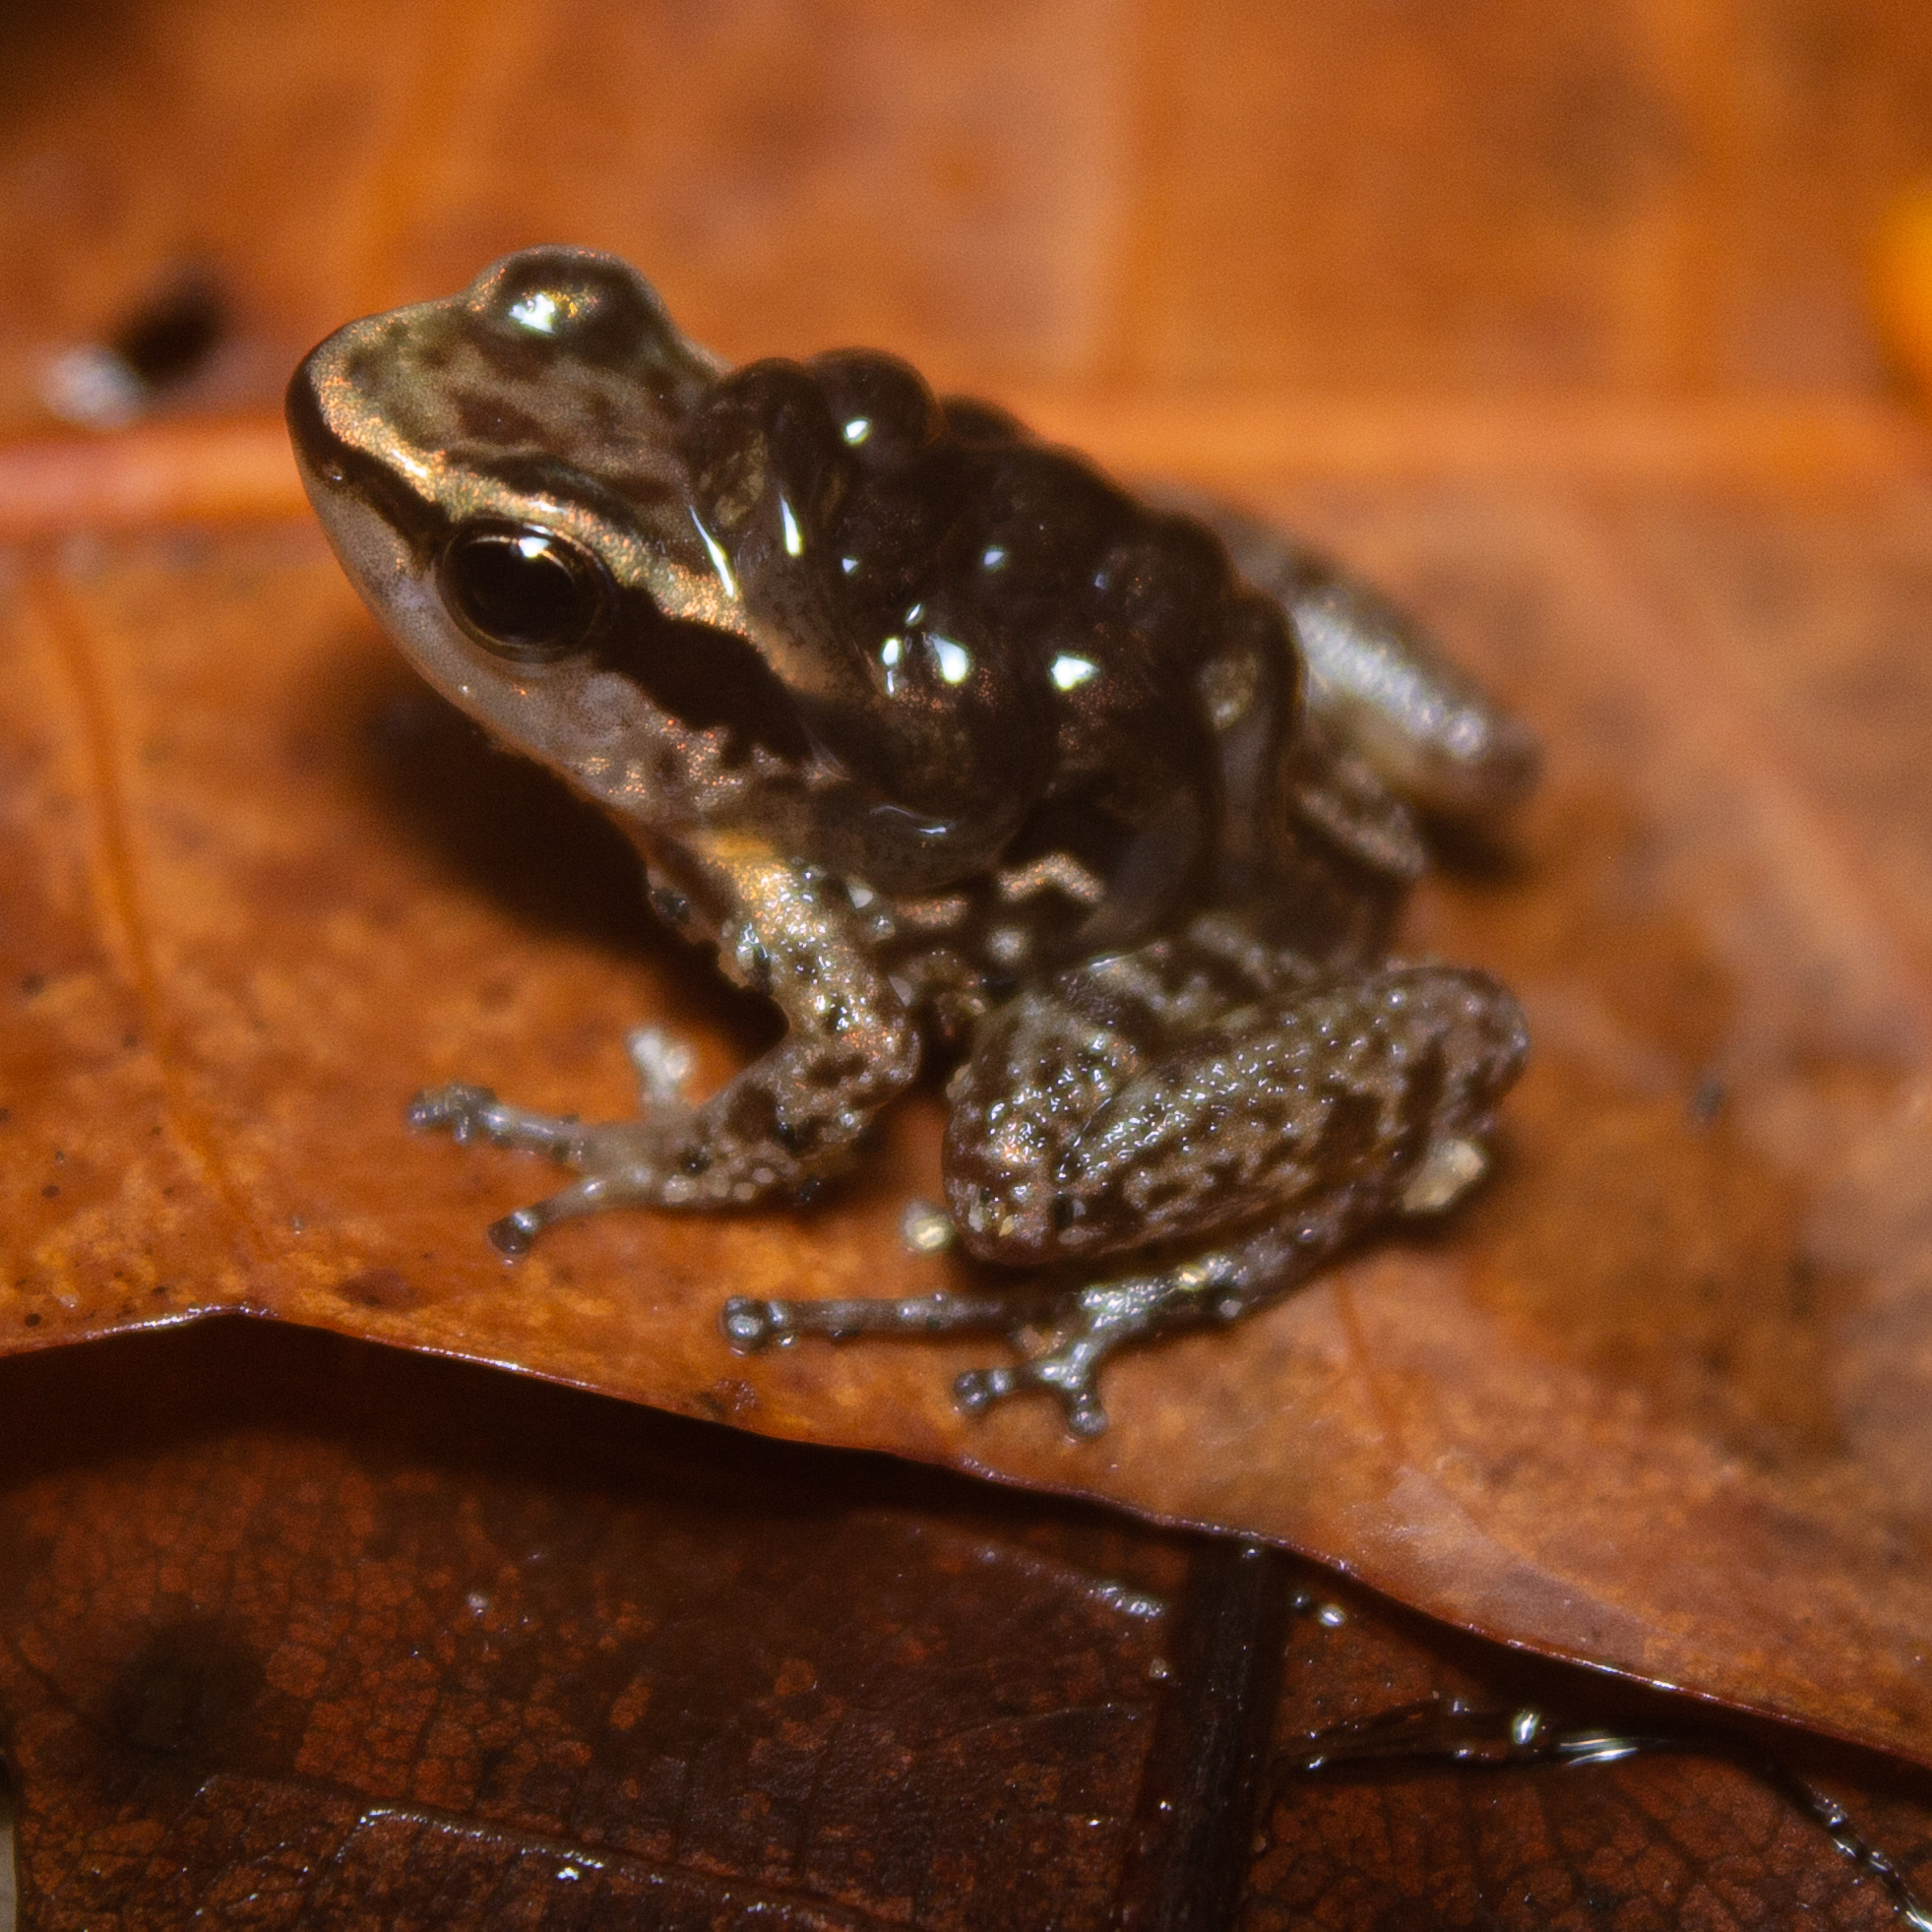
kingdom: Animalia
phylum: Chordata
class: Amphibia
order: Anura
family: Dendrobatidae
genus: Colostethus
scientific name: Colostethus ruthveni
